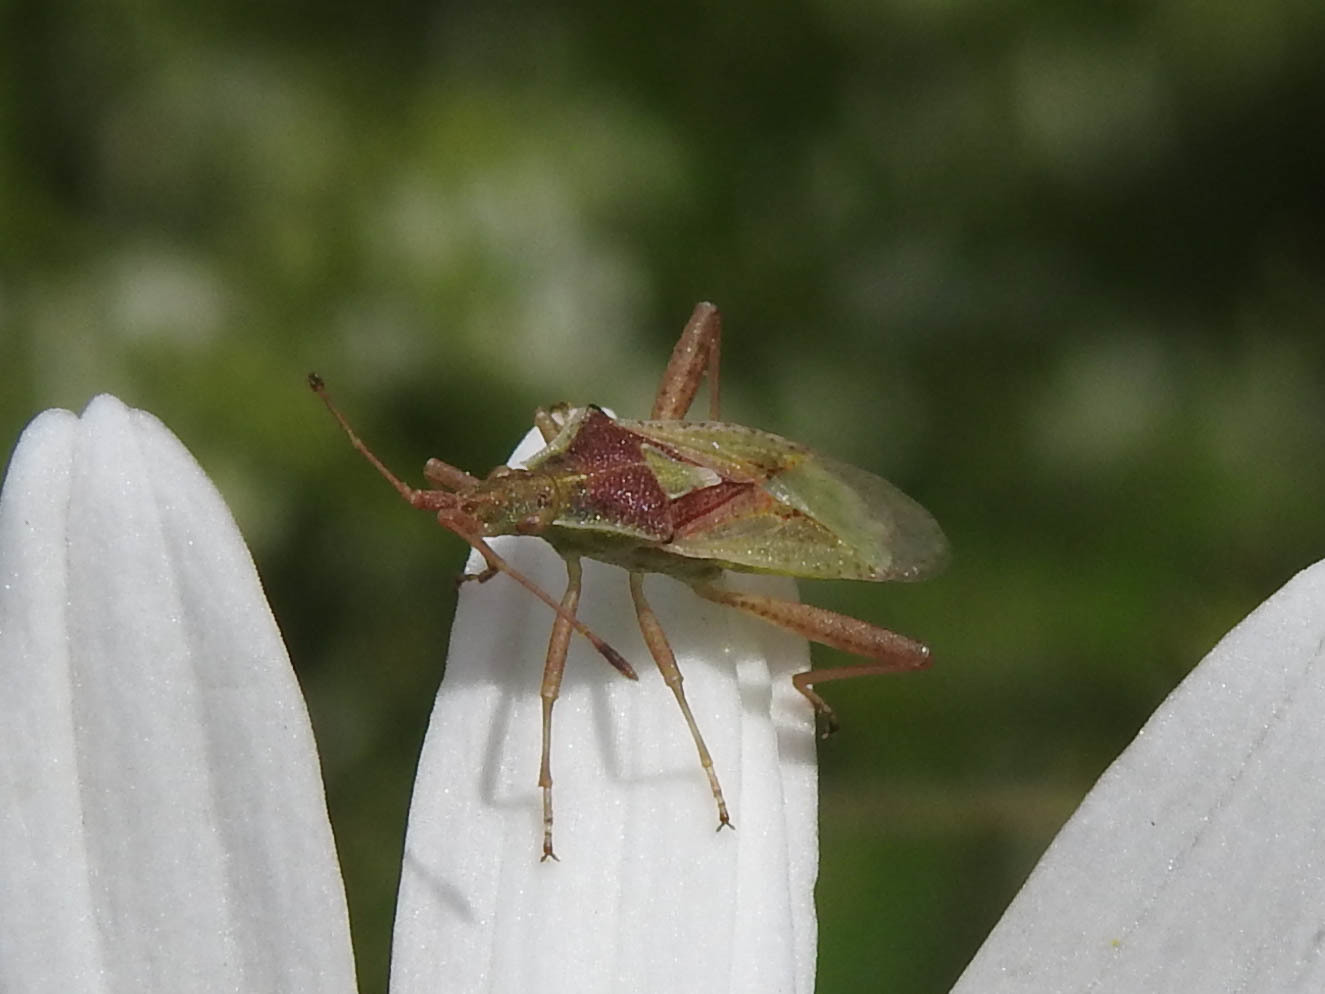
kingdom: Animalia
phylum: Arthropoda
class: Insecta
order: Hemiptera
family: Rhopalidae
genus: Harmostes
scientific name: Harmostes reflexulus
